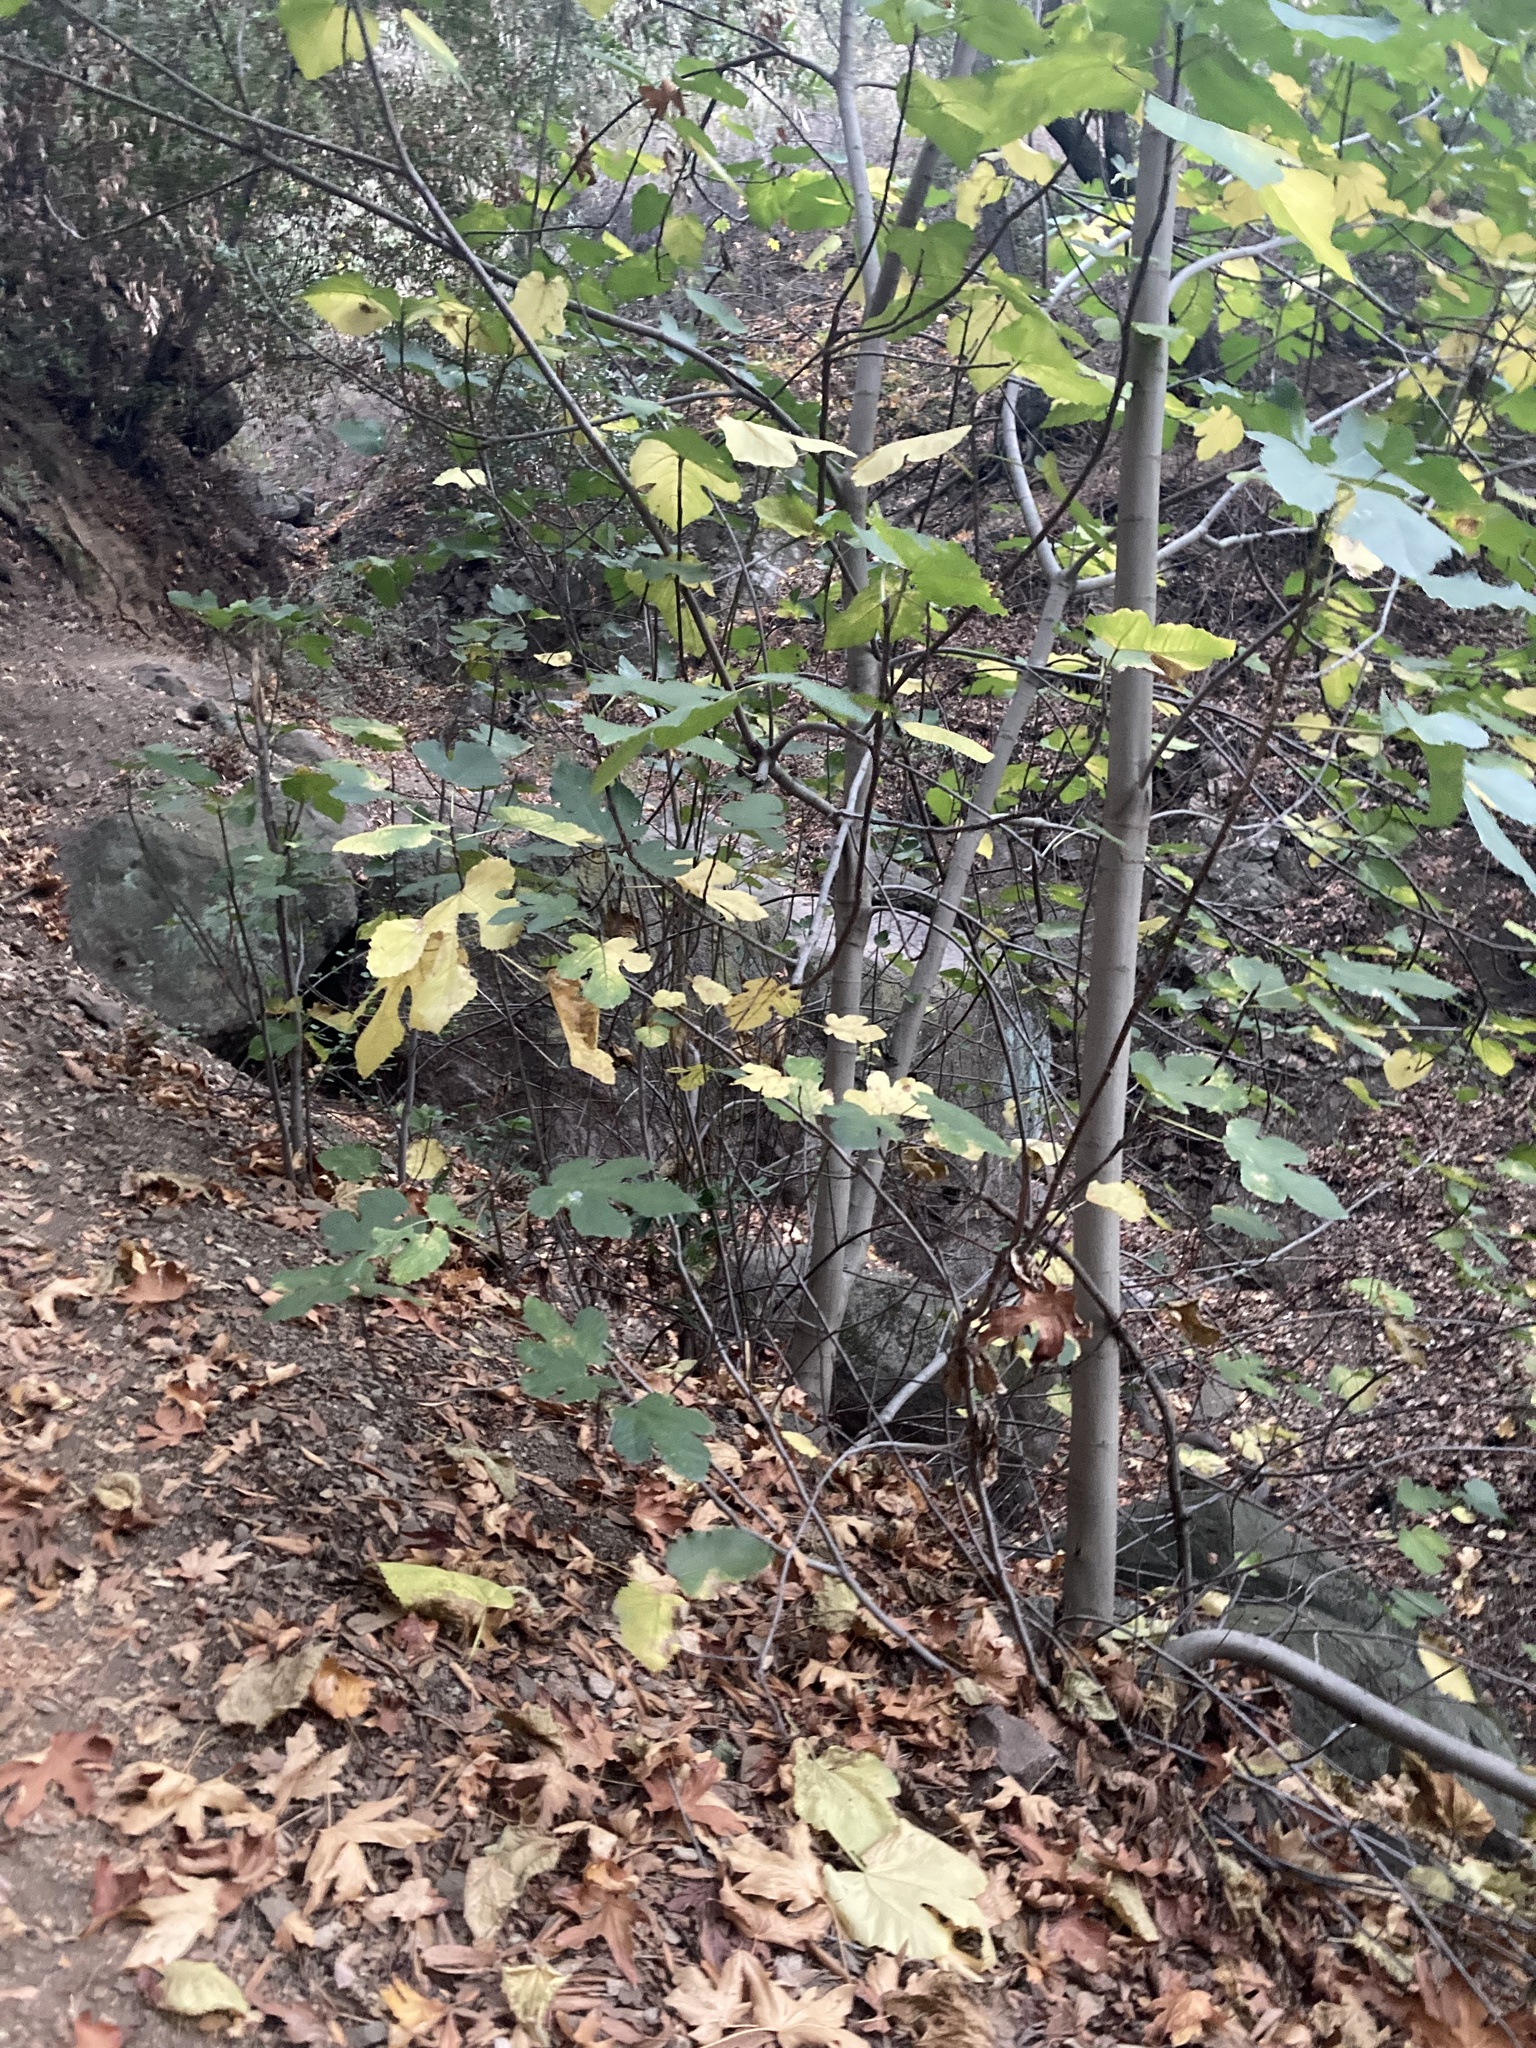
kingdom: Plantae
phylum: Tracheophyta
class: Magnoliopsida
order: Sapindales
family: Sapindaceae
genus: Acer
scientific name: Acer macrophyllum
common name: Oregon maple
